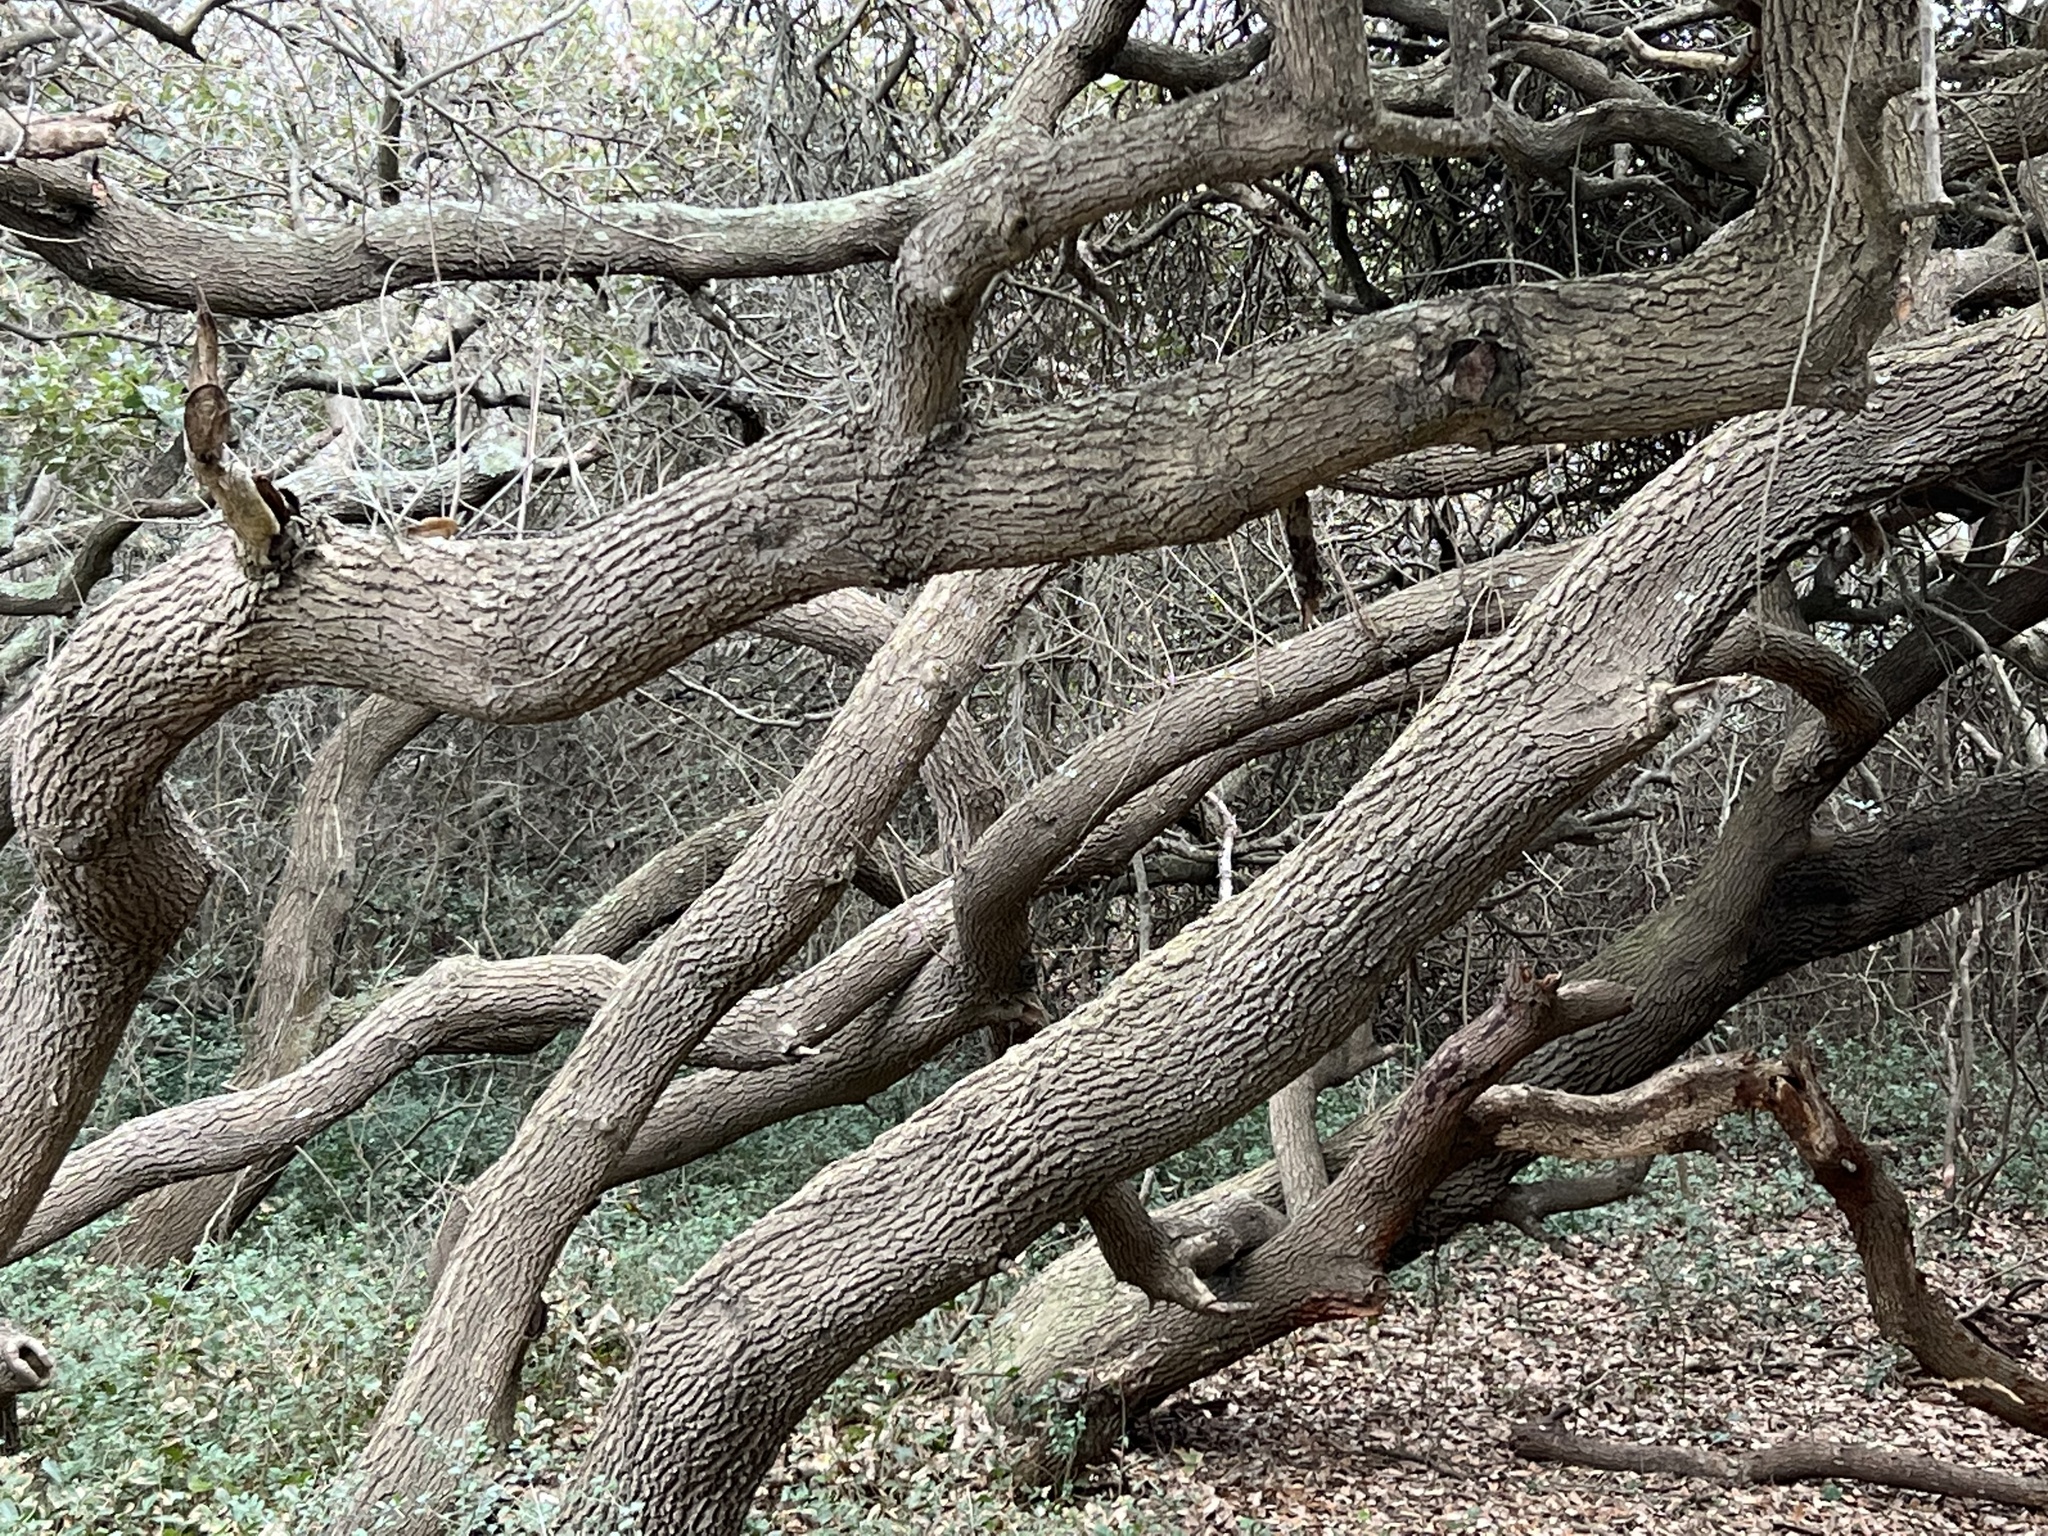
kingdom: Plantae
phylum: Tracheophyta
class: Magnoliopsida
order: Fagales
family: Fagaceae
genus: Quercus
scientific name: Quercus virginiana
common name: Southern live oak
